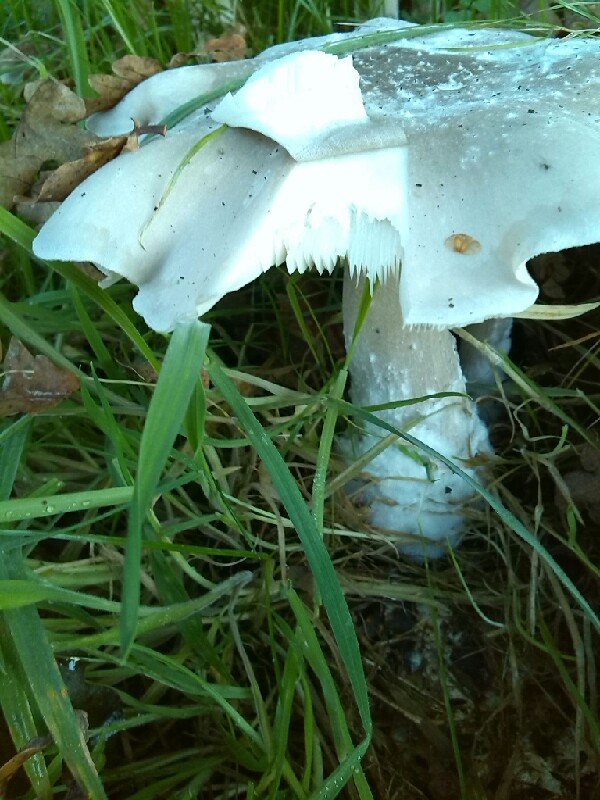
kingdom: Fungi
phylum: Basidiomycota
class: Agaricomycetes
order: Agaricales
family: Tricholomataceae
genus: Clitocybe
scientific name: Clitocybe nebularis
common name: Clouded agaric
